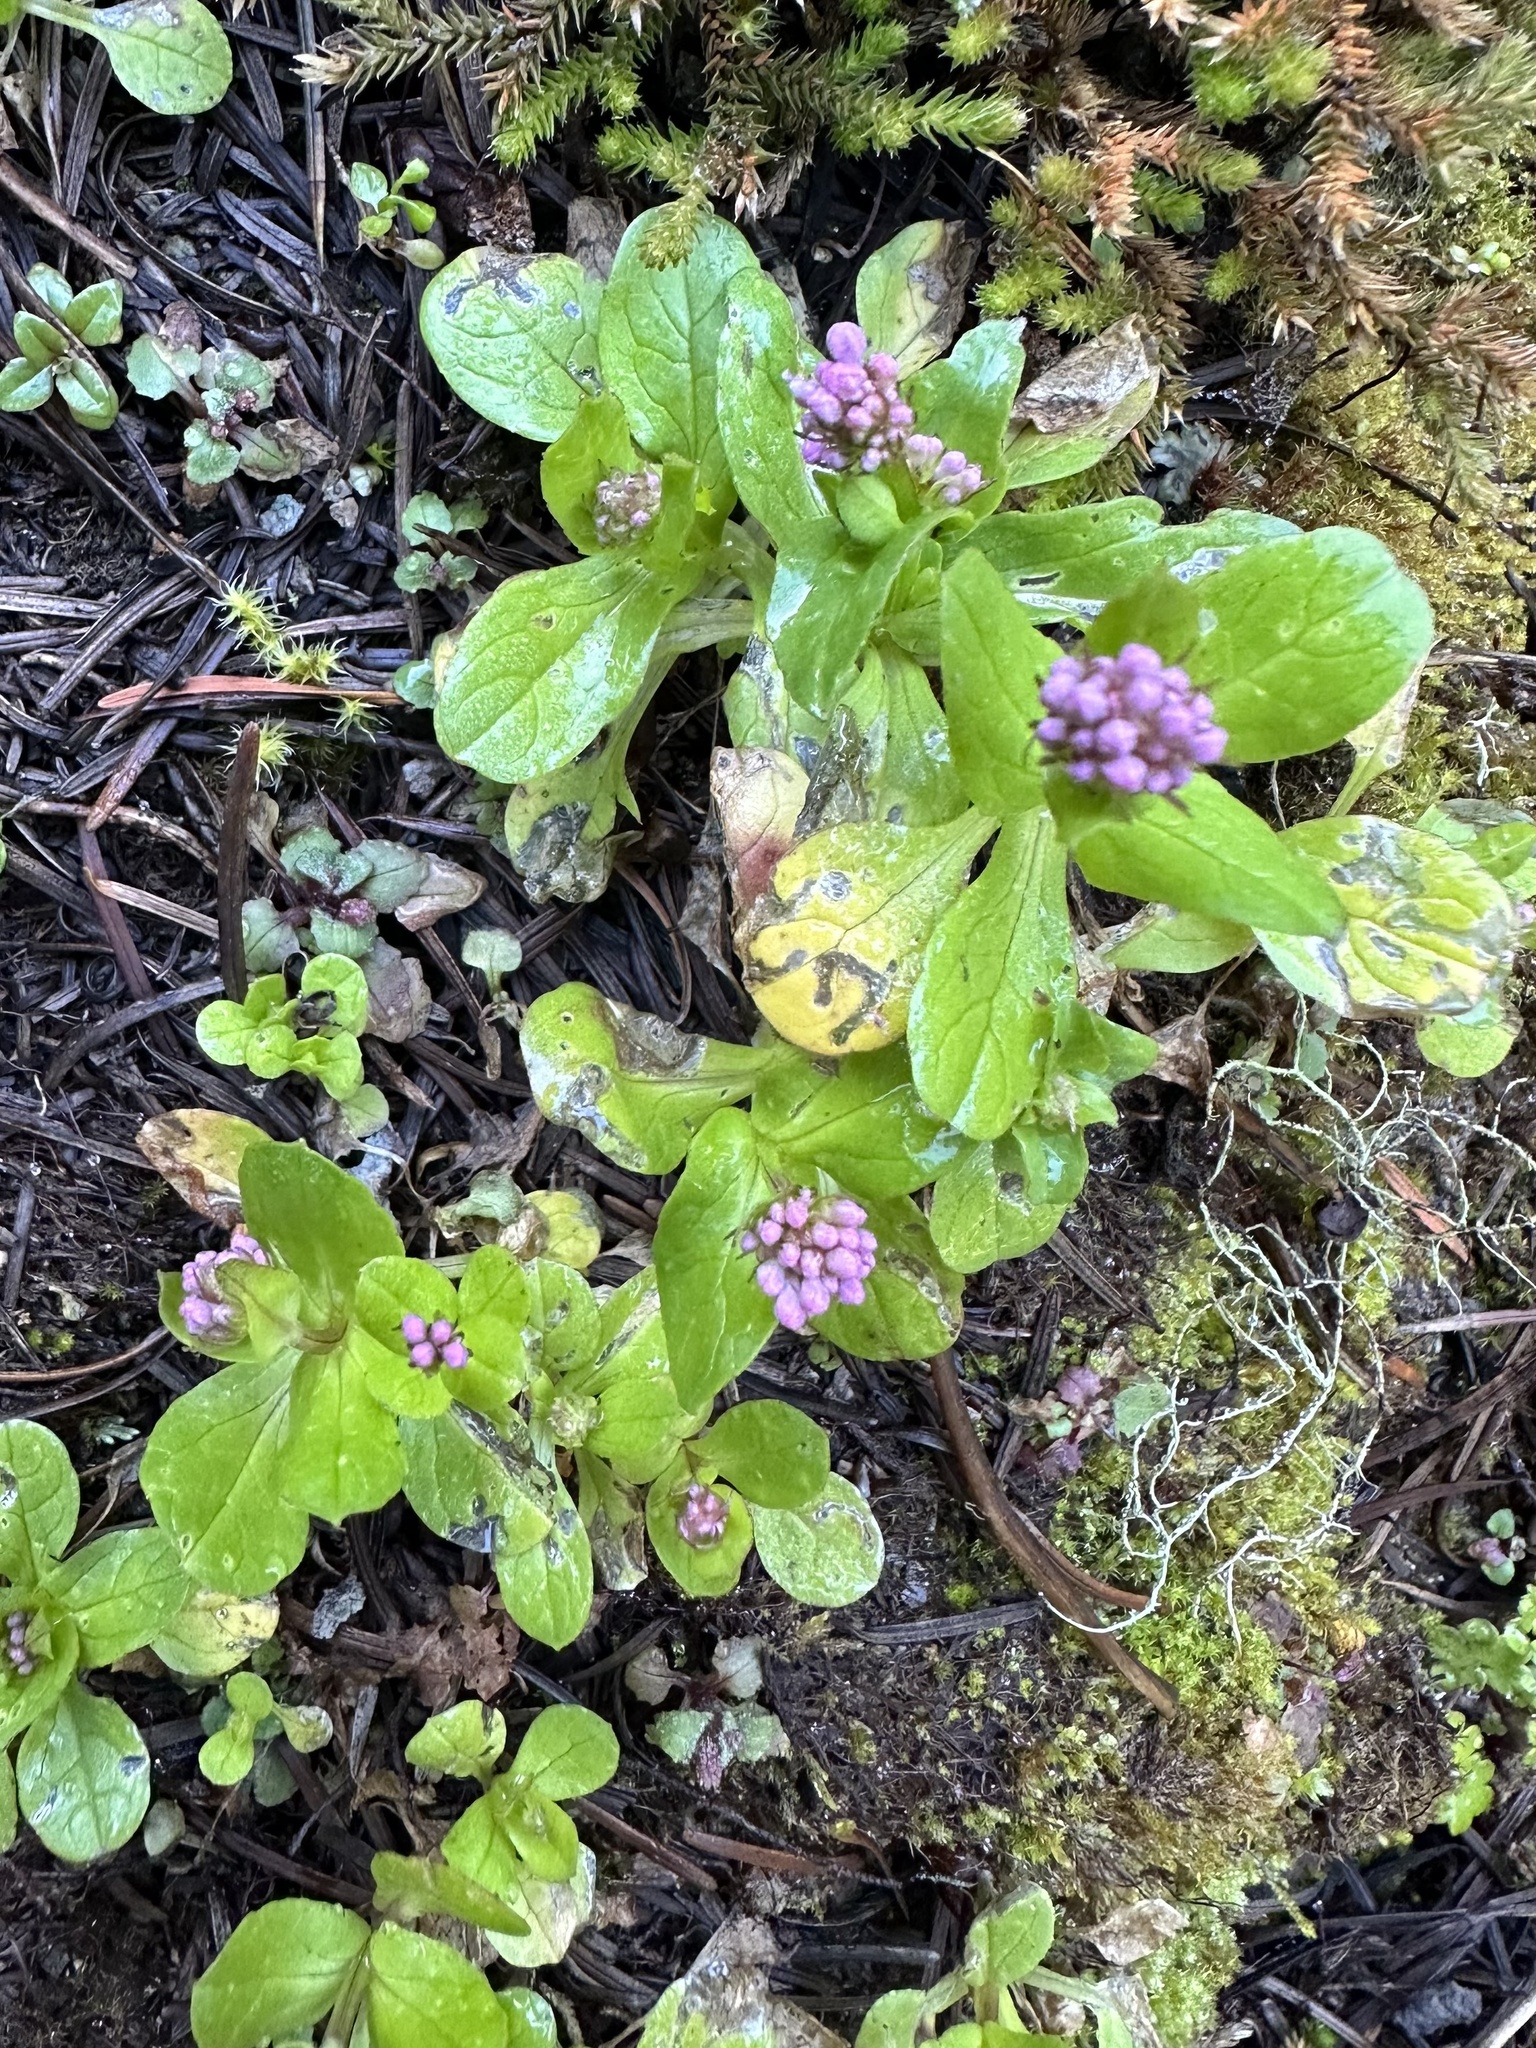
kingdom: Plantae
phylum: Tracheophyta
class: Magnoliopsida
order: Dipsacales
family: Caprifoliaceae
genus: Plectritis
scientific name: Plectritis congesta
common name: Pink plectritis
